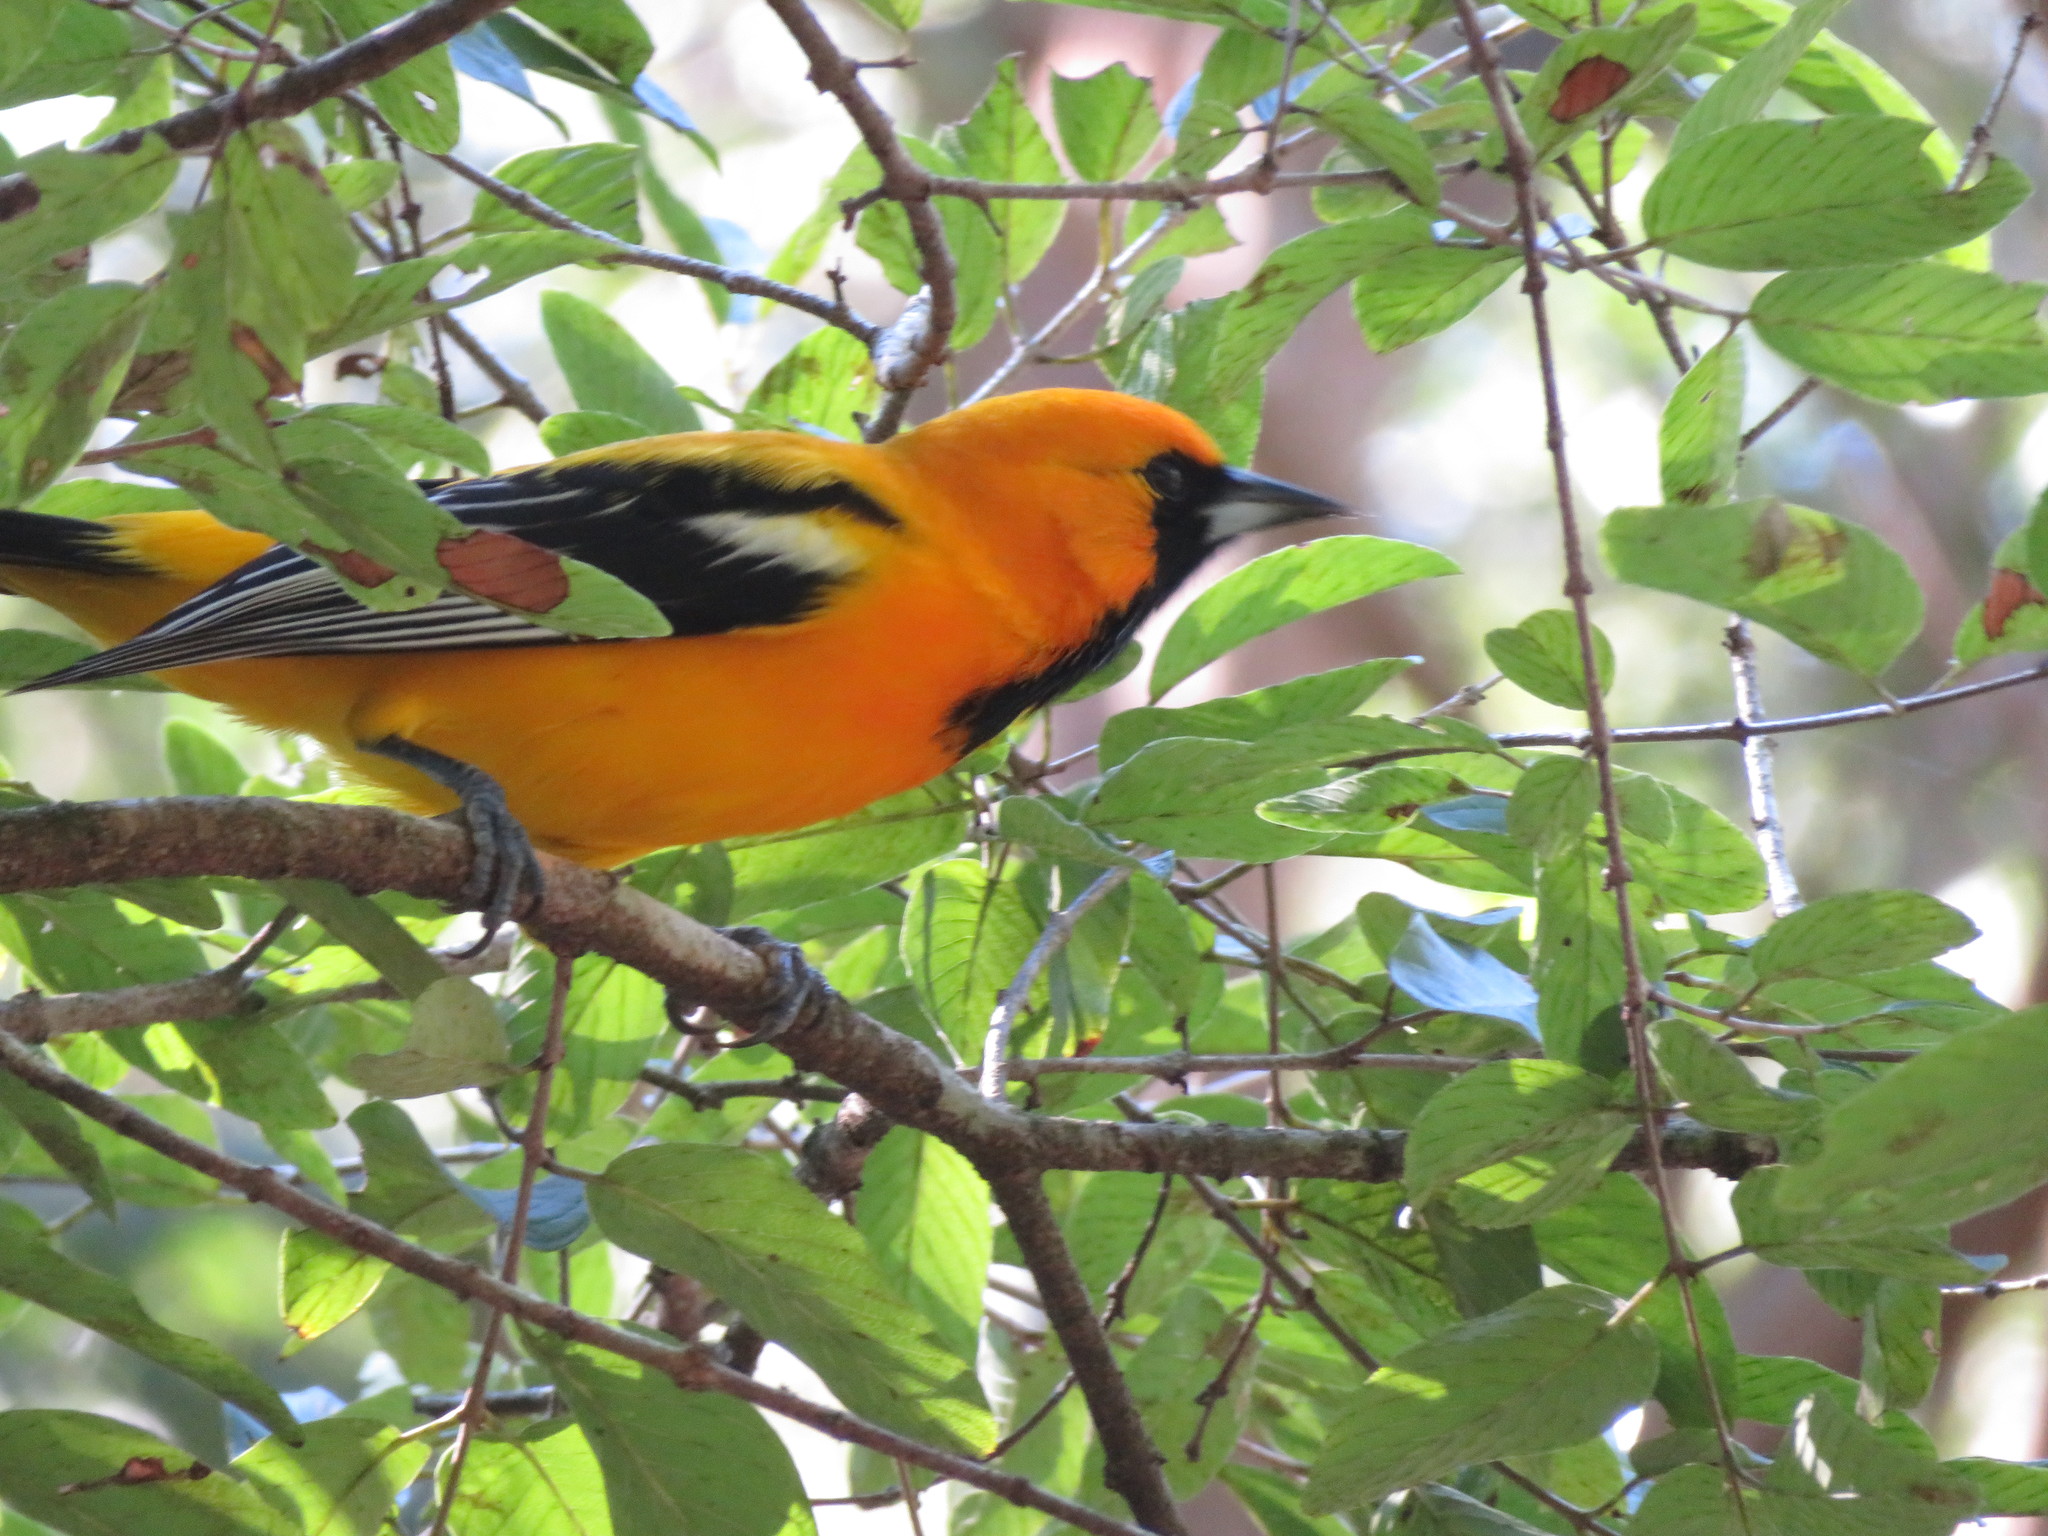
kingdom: Animalia
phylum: Chordata
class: Aves
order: Passeriformes
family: Icteridae
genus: Icterus
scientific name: Icterus auratus
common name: Orange oriole
